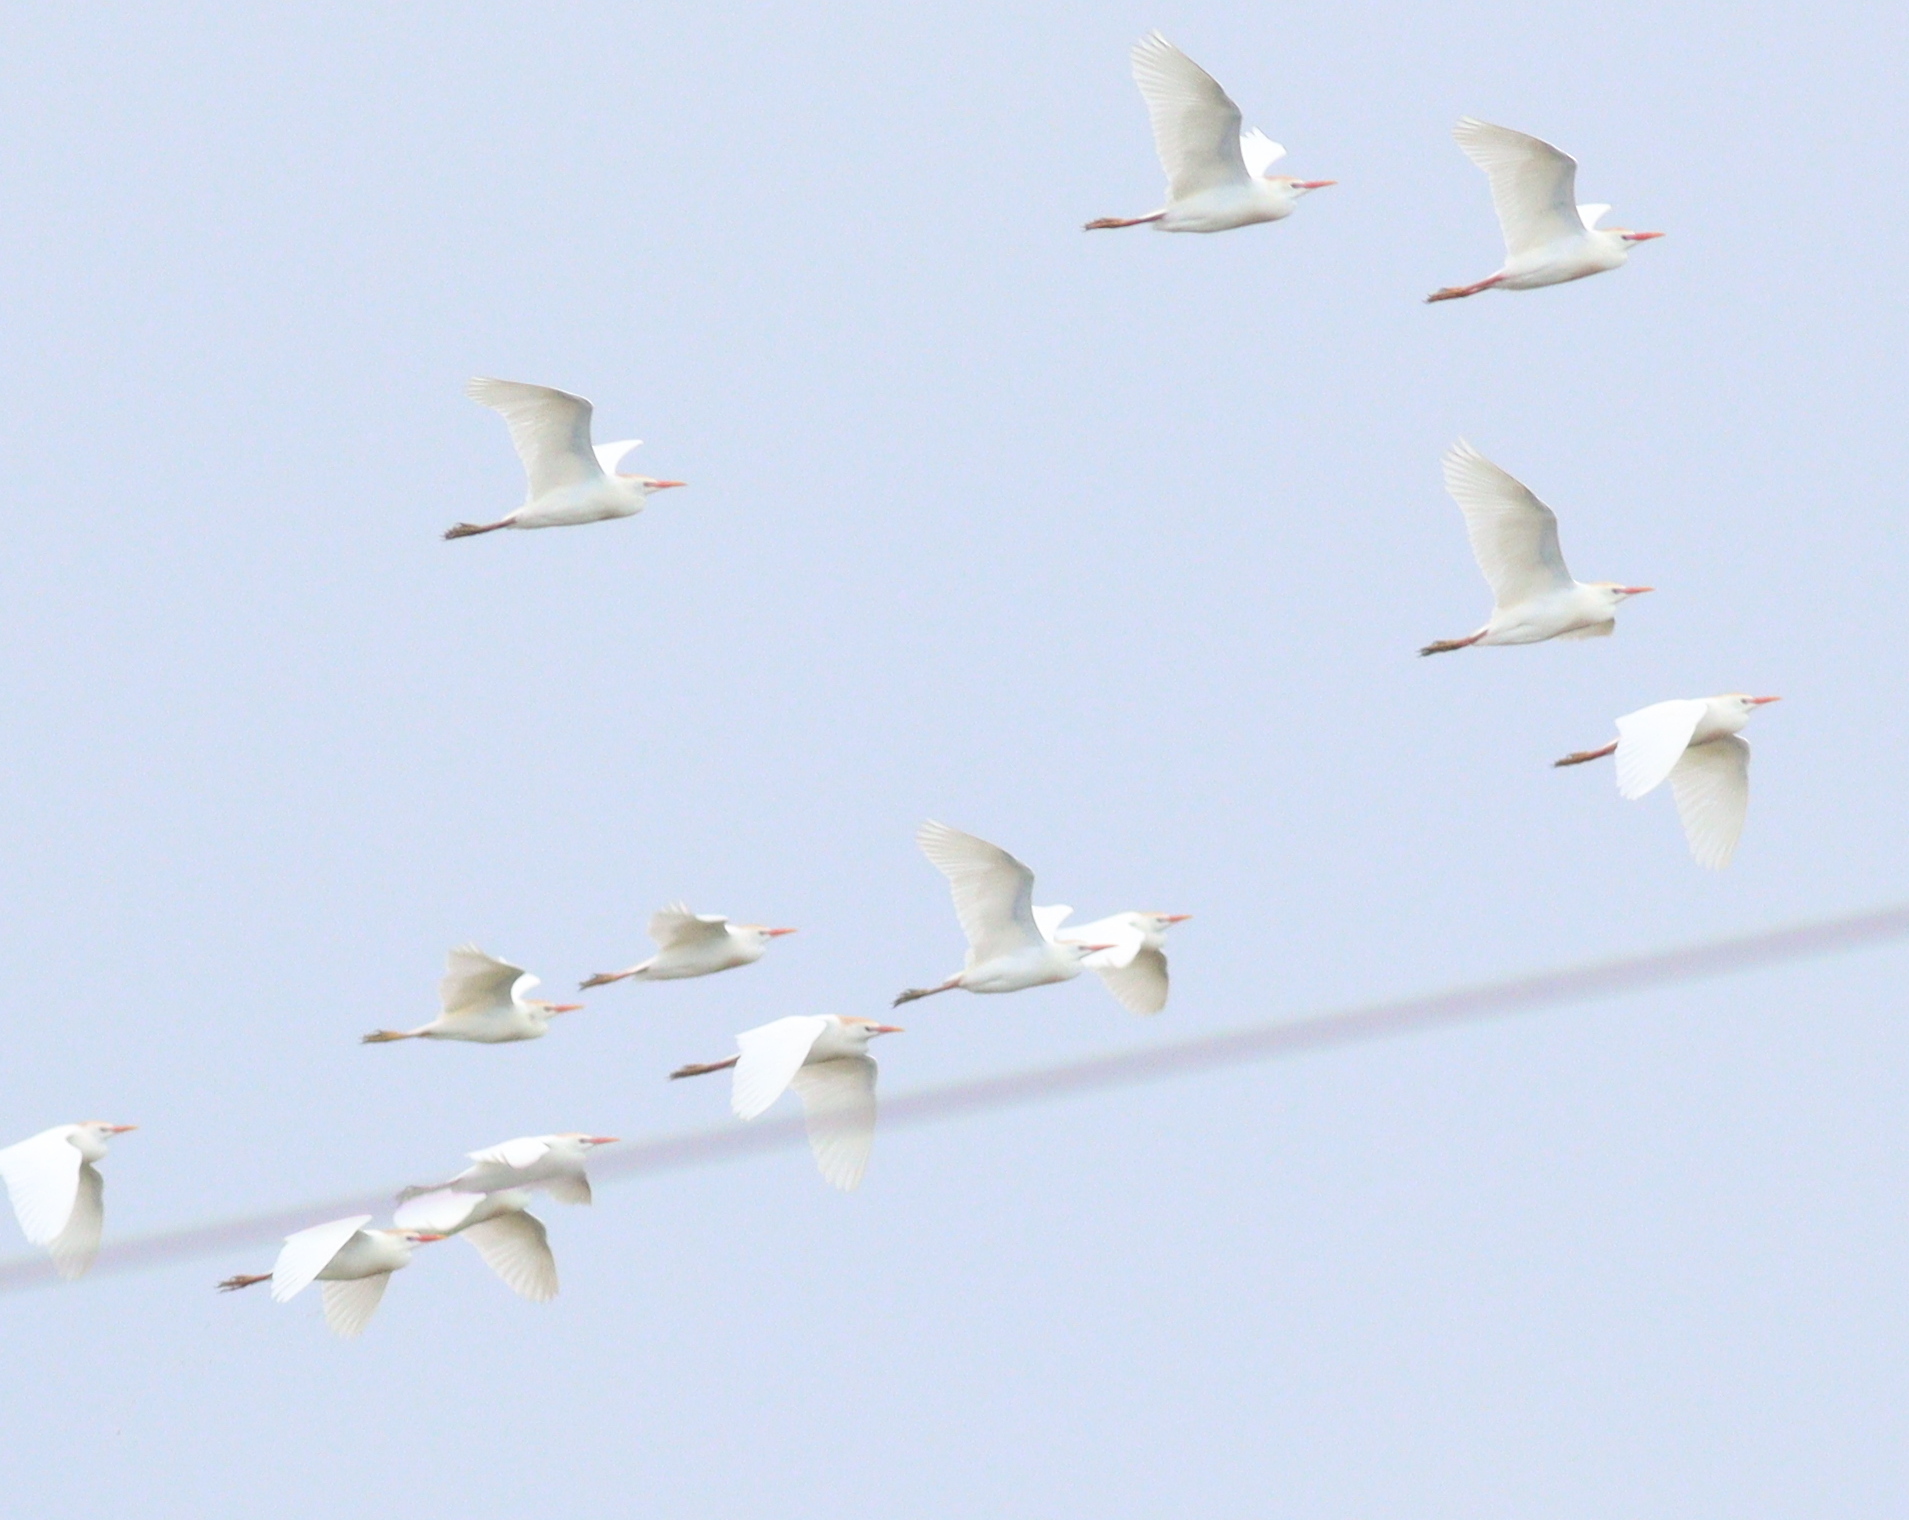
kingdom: Animalia
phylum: Chordata
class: Aves
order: Pelecaniformes
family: Ardeidae
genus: Bubulcus
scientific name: Bubulcus ibis
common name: Cattle egret
